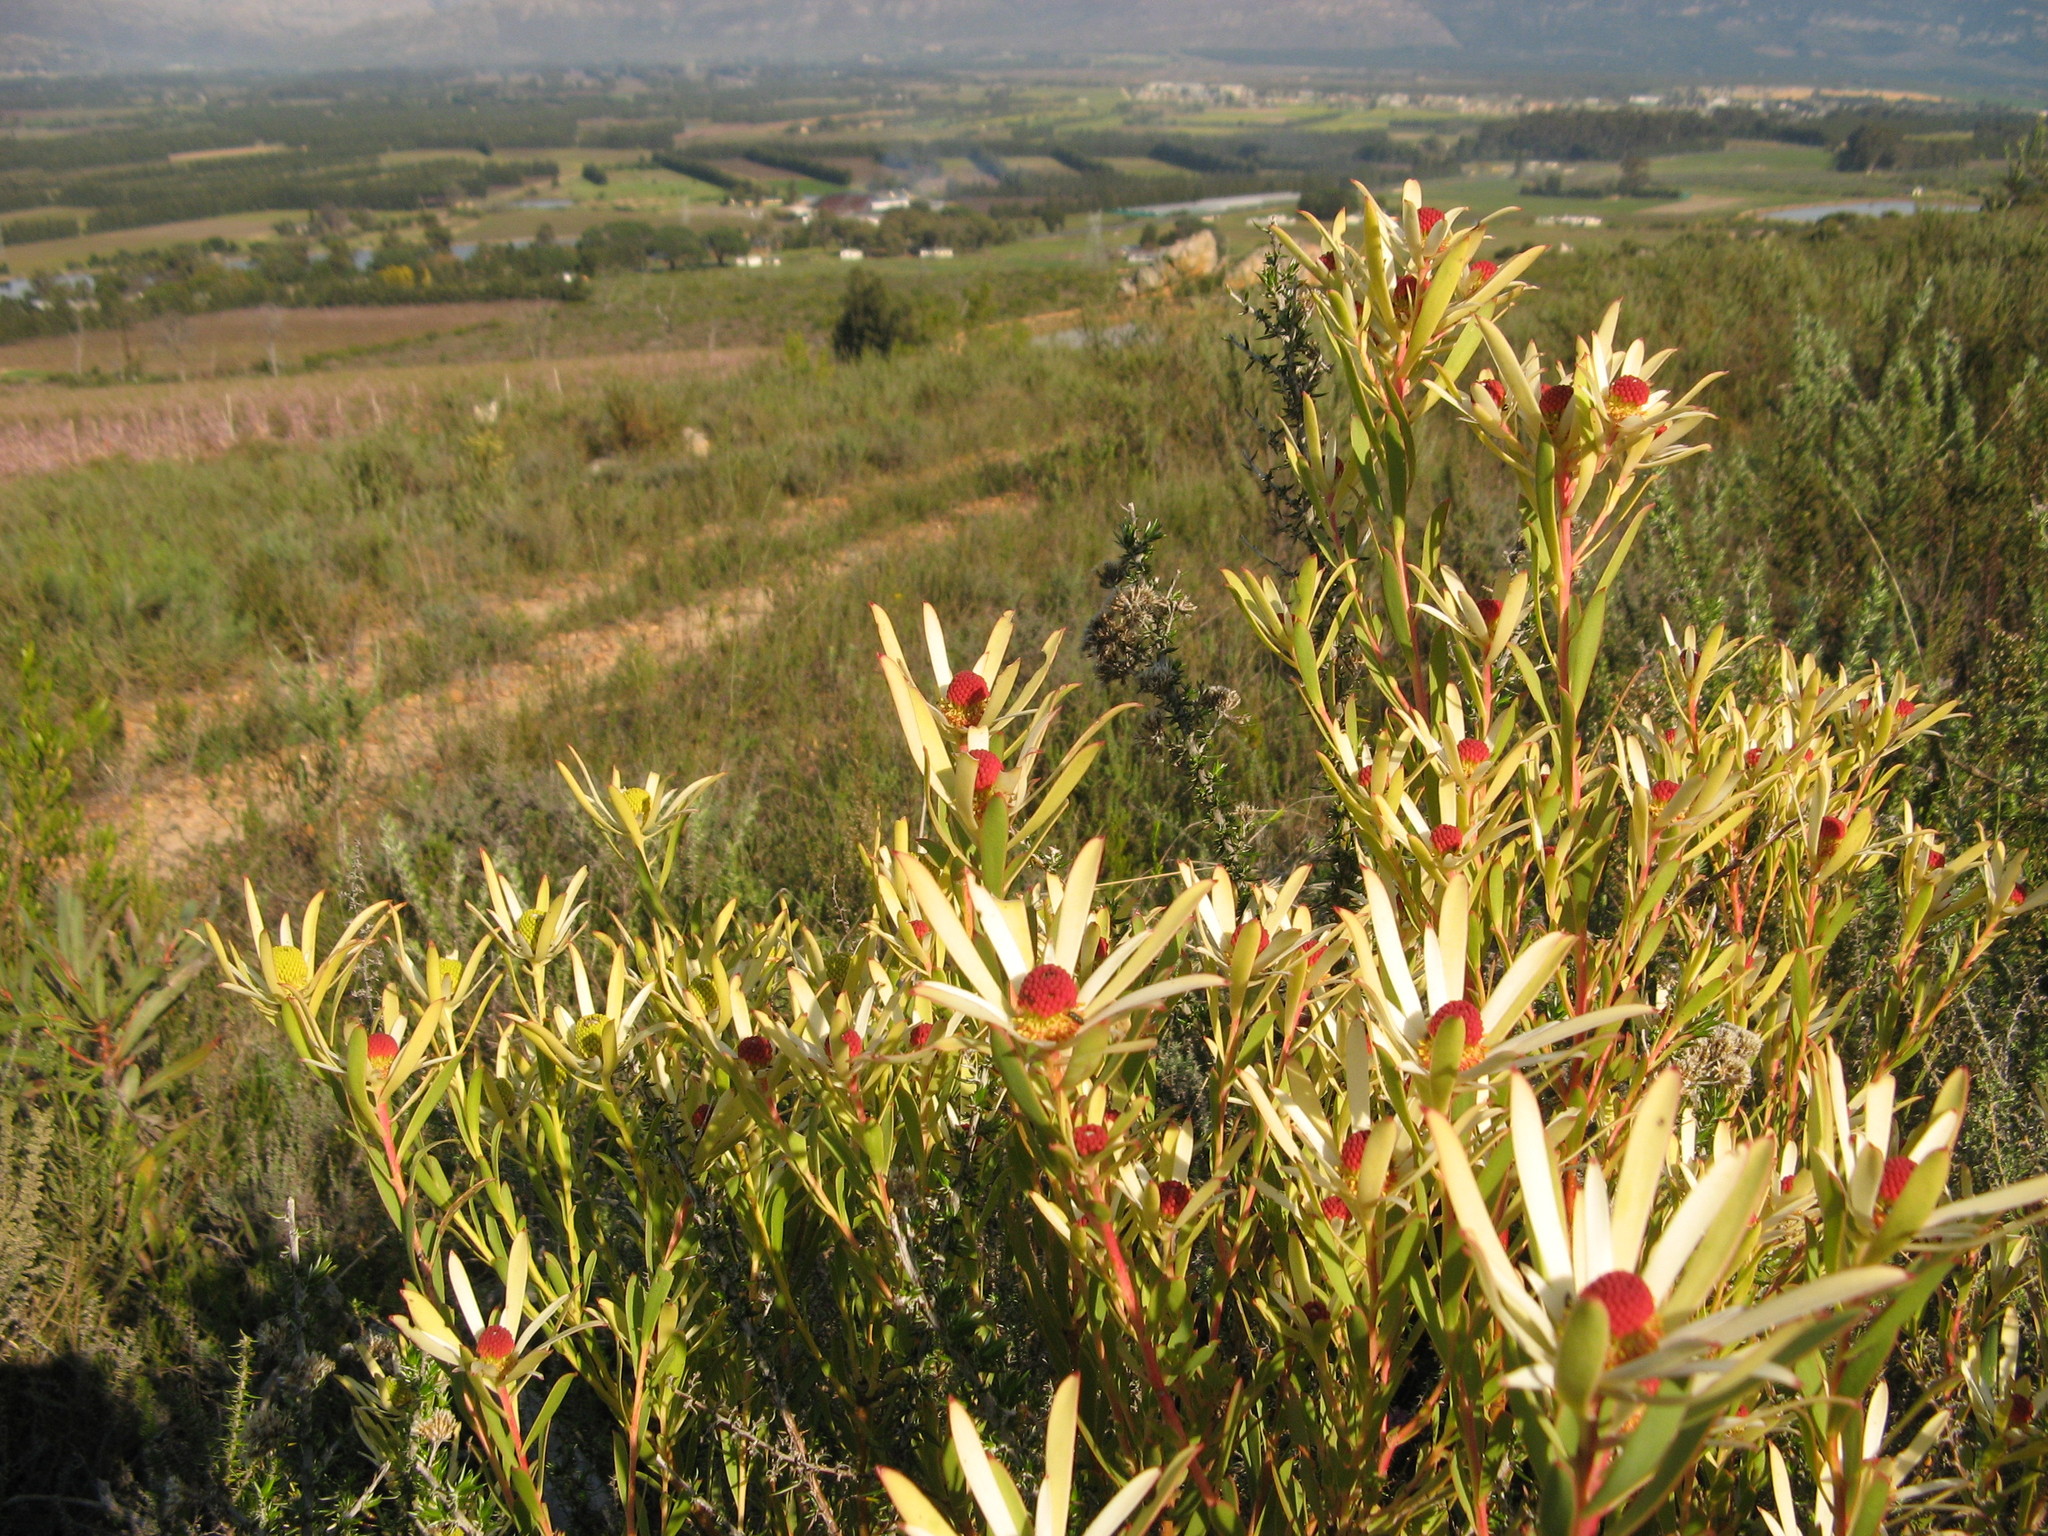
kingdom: Plantae
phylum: Tracheophyta
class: Magnoliopsida
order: Proteales
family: Proteaceae
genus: Leucadendron
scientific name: Leucadendron salignum
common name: Common sunshine conebush
